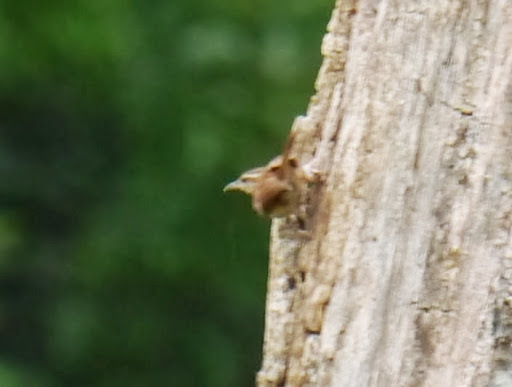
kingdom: Animalia
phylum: Chordata
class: Aves
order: Passeriformes
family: Troglodytidae
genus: Thryothorus
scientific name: Thryothorus ludovicianus
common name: Carolina wren
